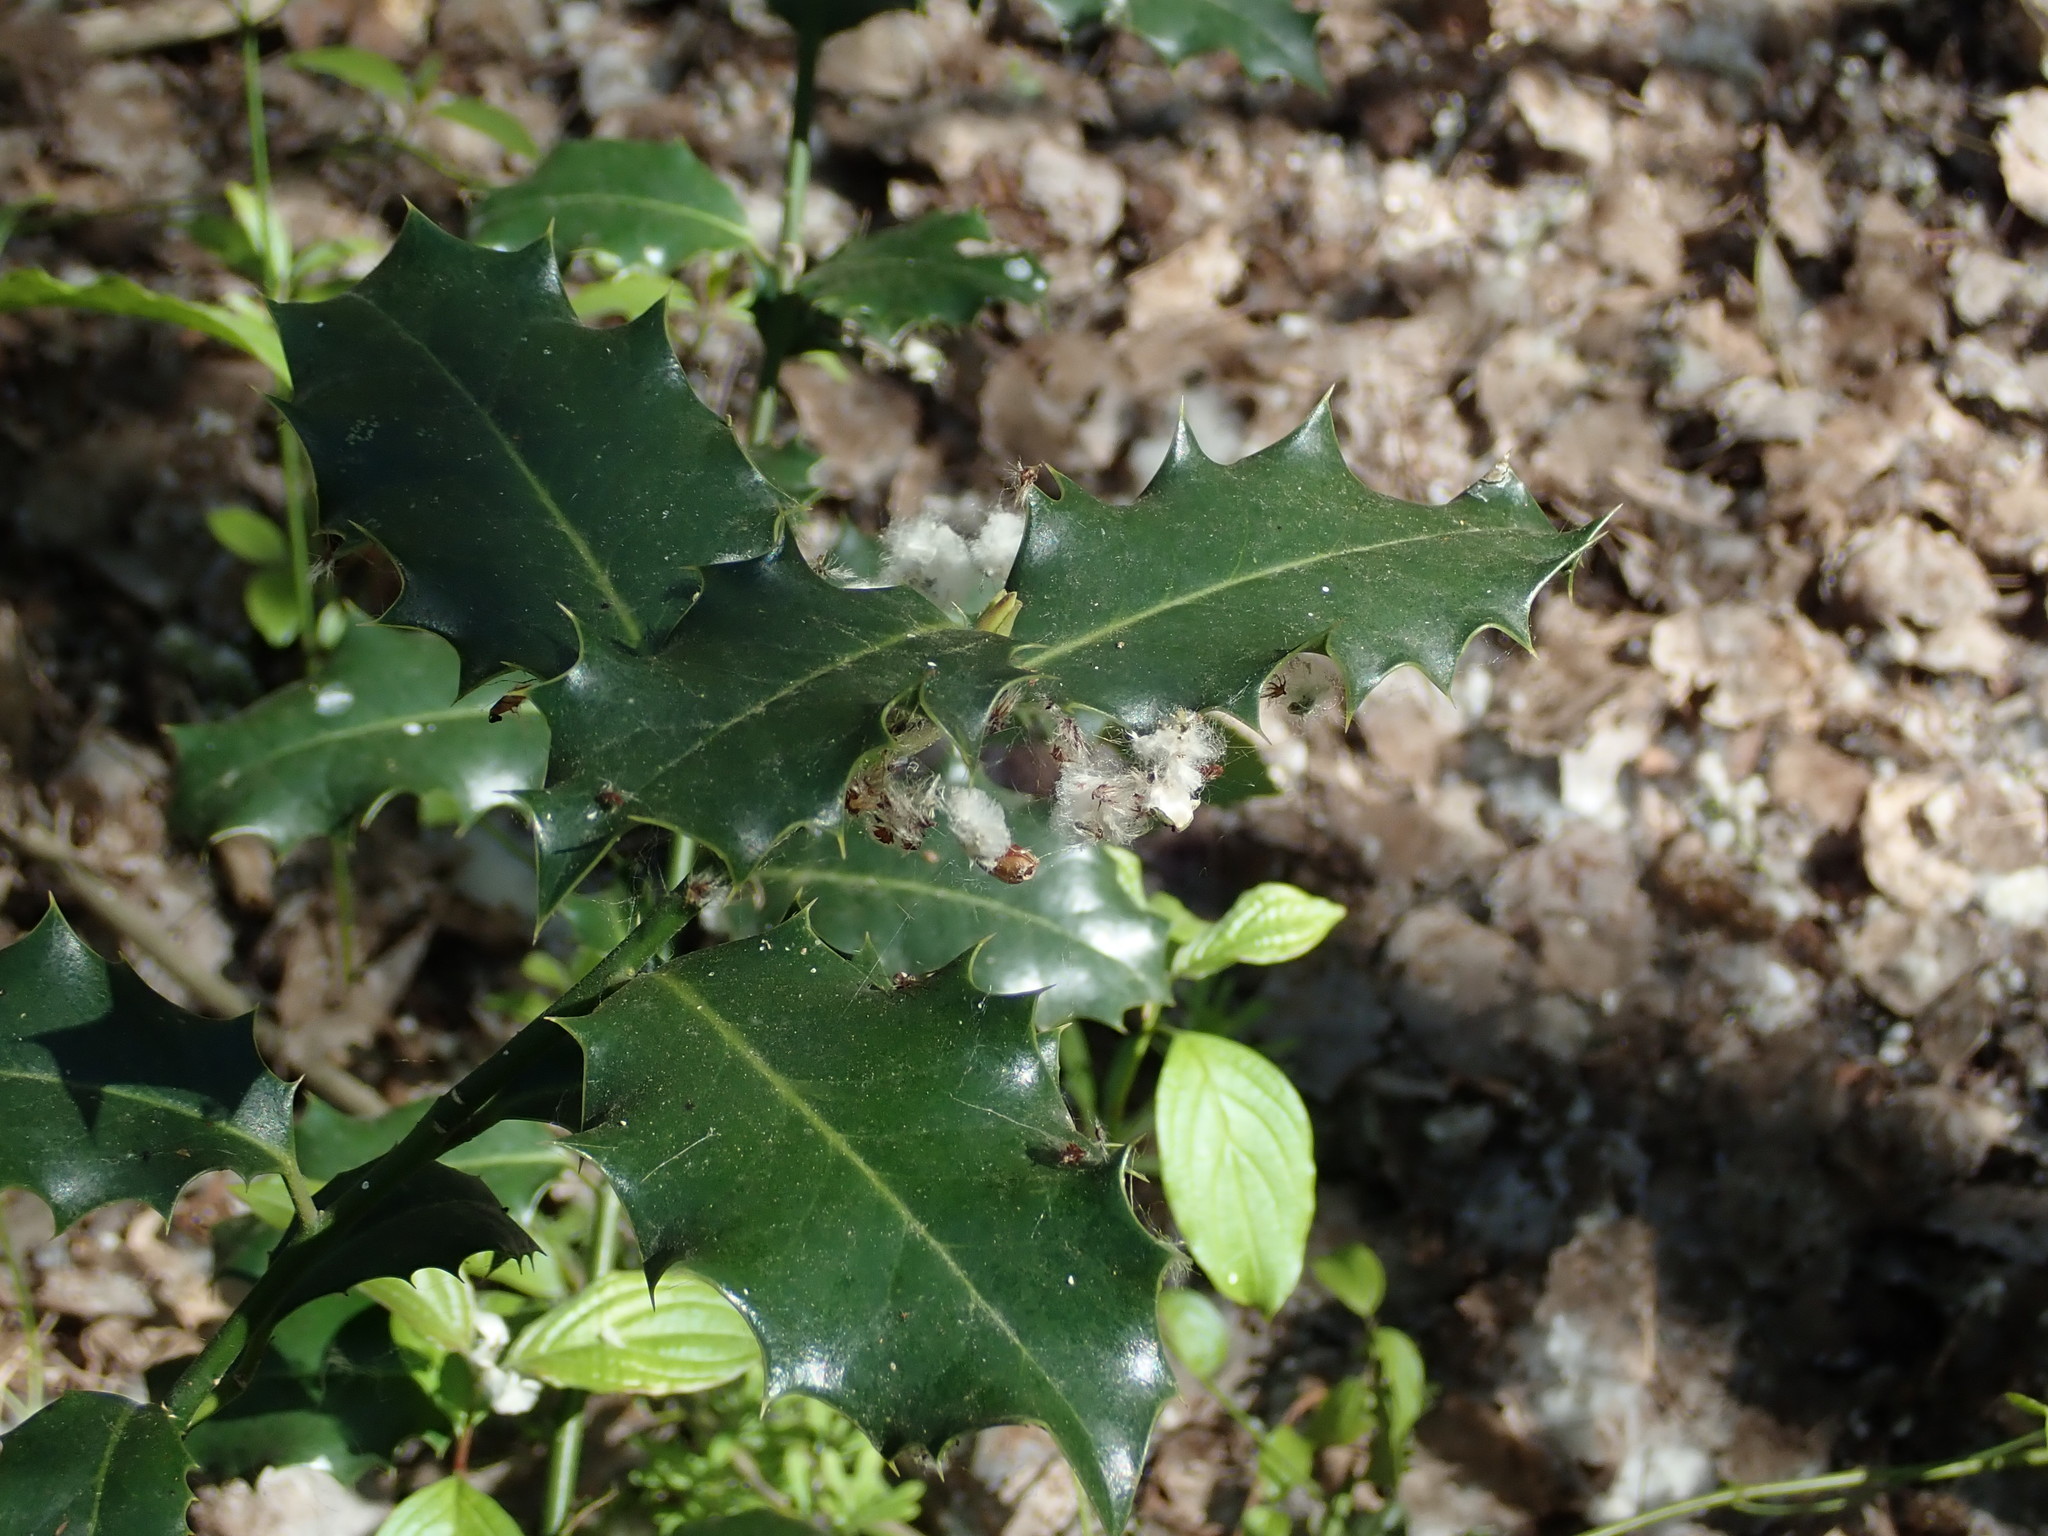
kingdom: Plantae
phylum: Tracheophyta
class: Magnoliopsida
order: Aquifoliales
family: Aquifoliaceae
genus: Ilex
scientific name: Ilex aquifolium
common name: English holly
